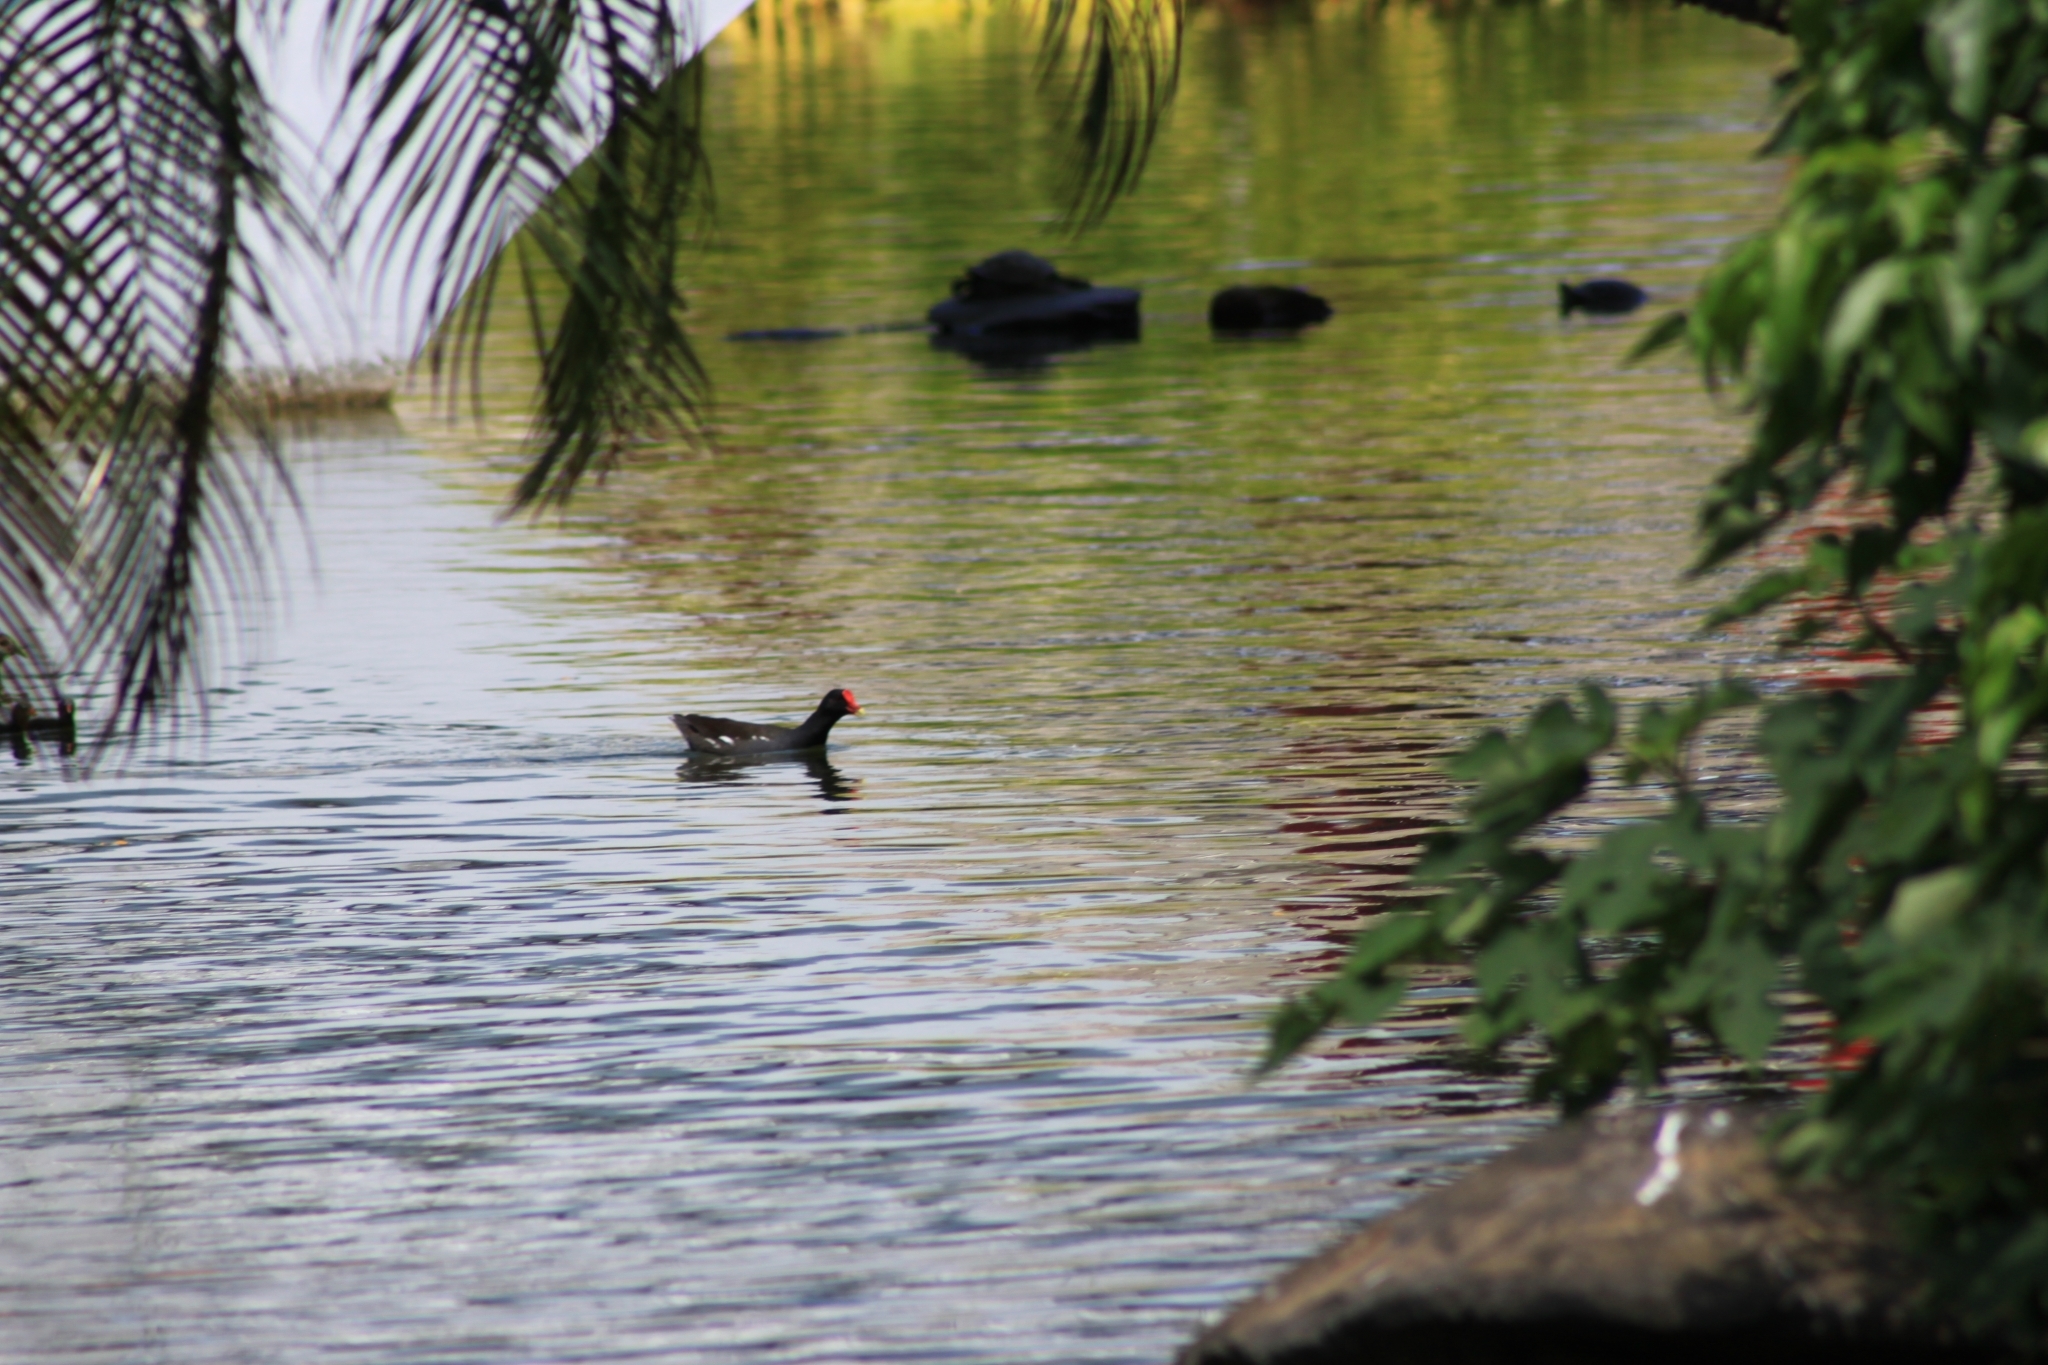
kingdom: Animalia
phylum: Chordata
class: Aves
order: Gruiformes
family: Rallidae
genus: Gallinula
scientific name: Gallinula chloropus
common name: Common moorhen
